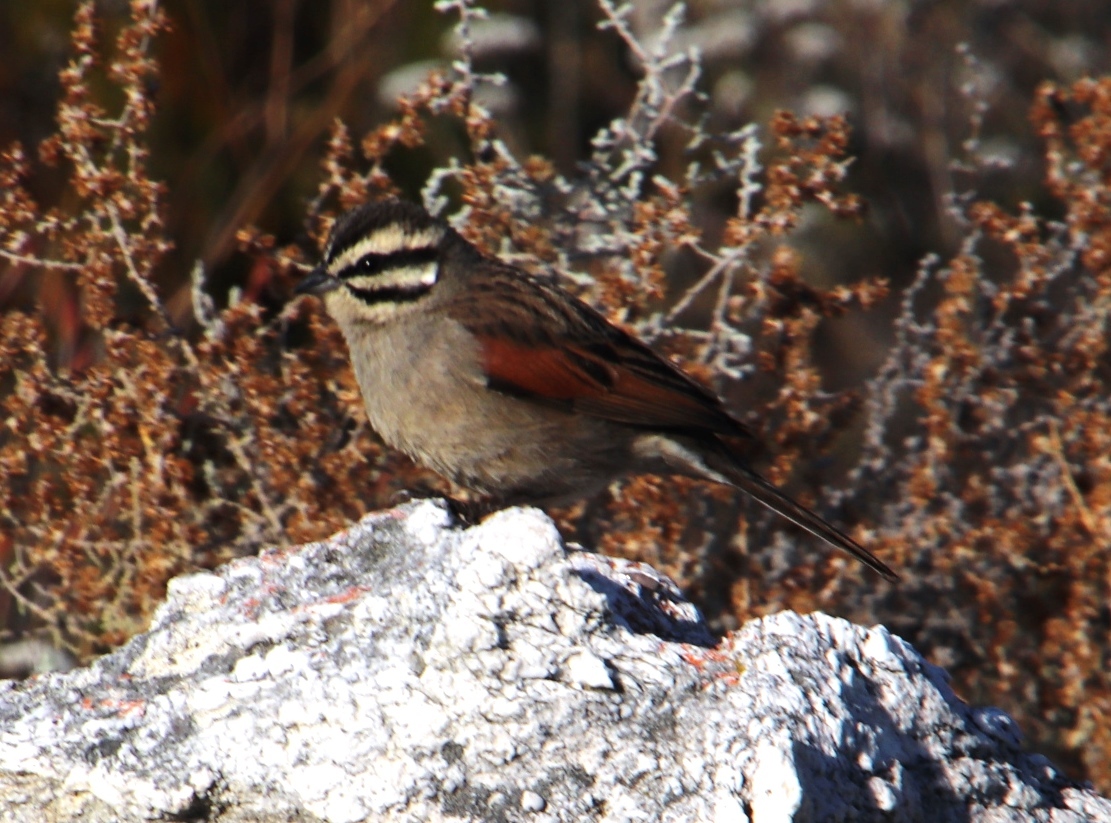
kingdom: Animalia
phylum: Chordata
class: Aves
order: Passeriformes
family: Emberizidae
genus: Emberiza
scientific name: Emberiza capensis
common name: Cape bunting
